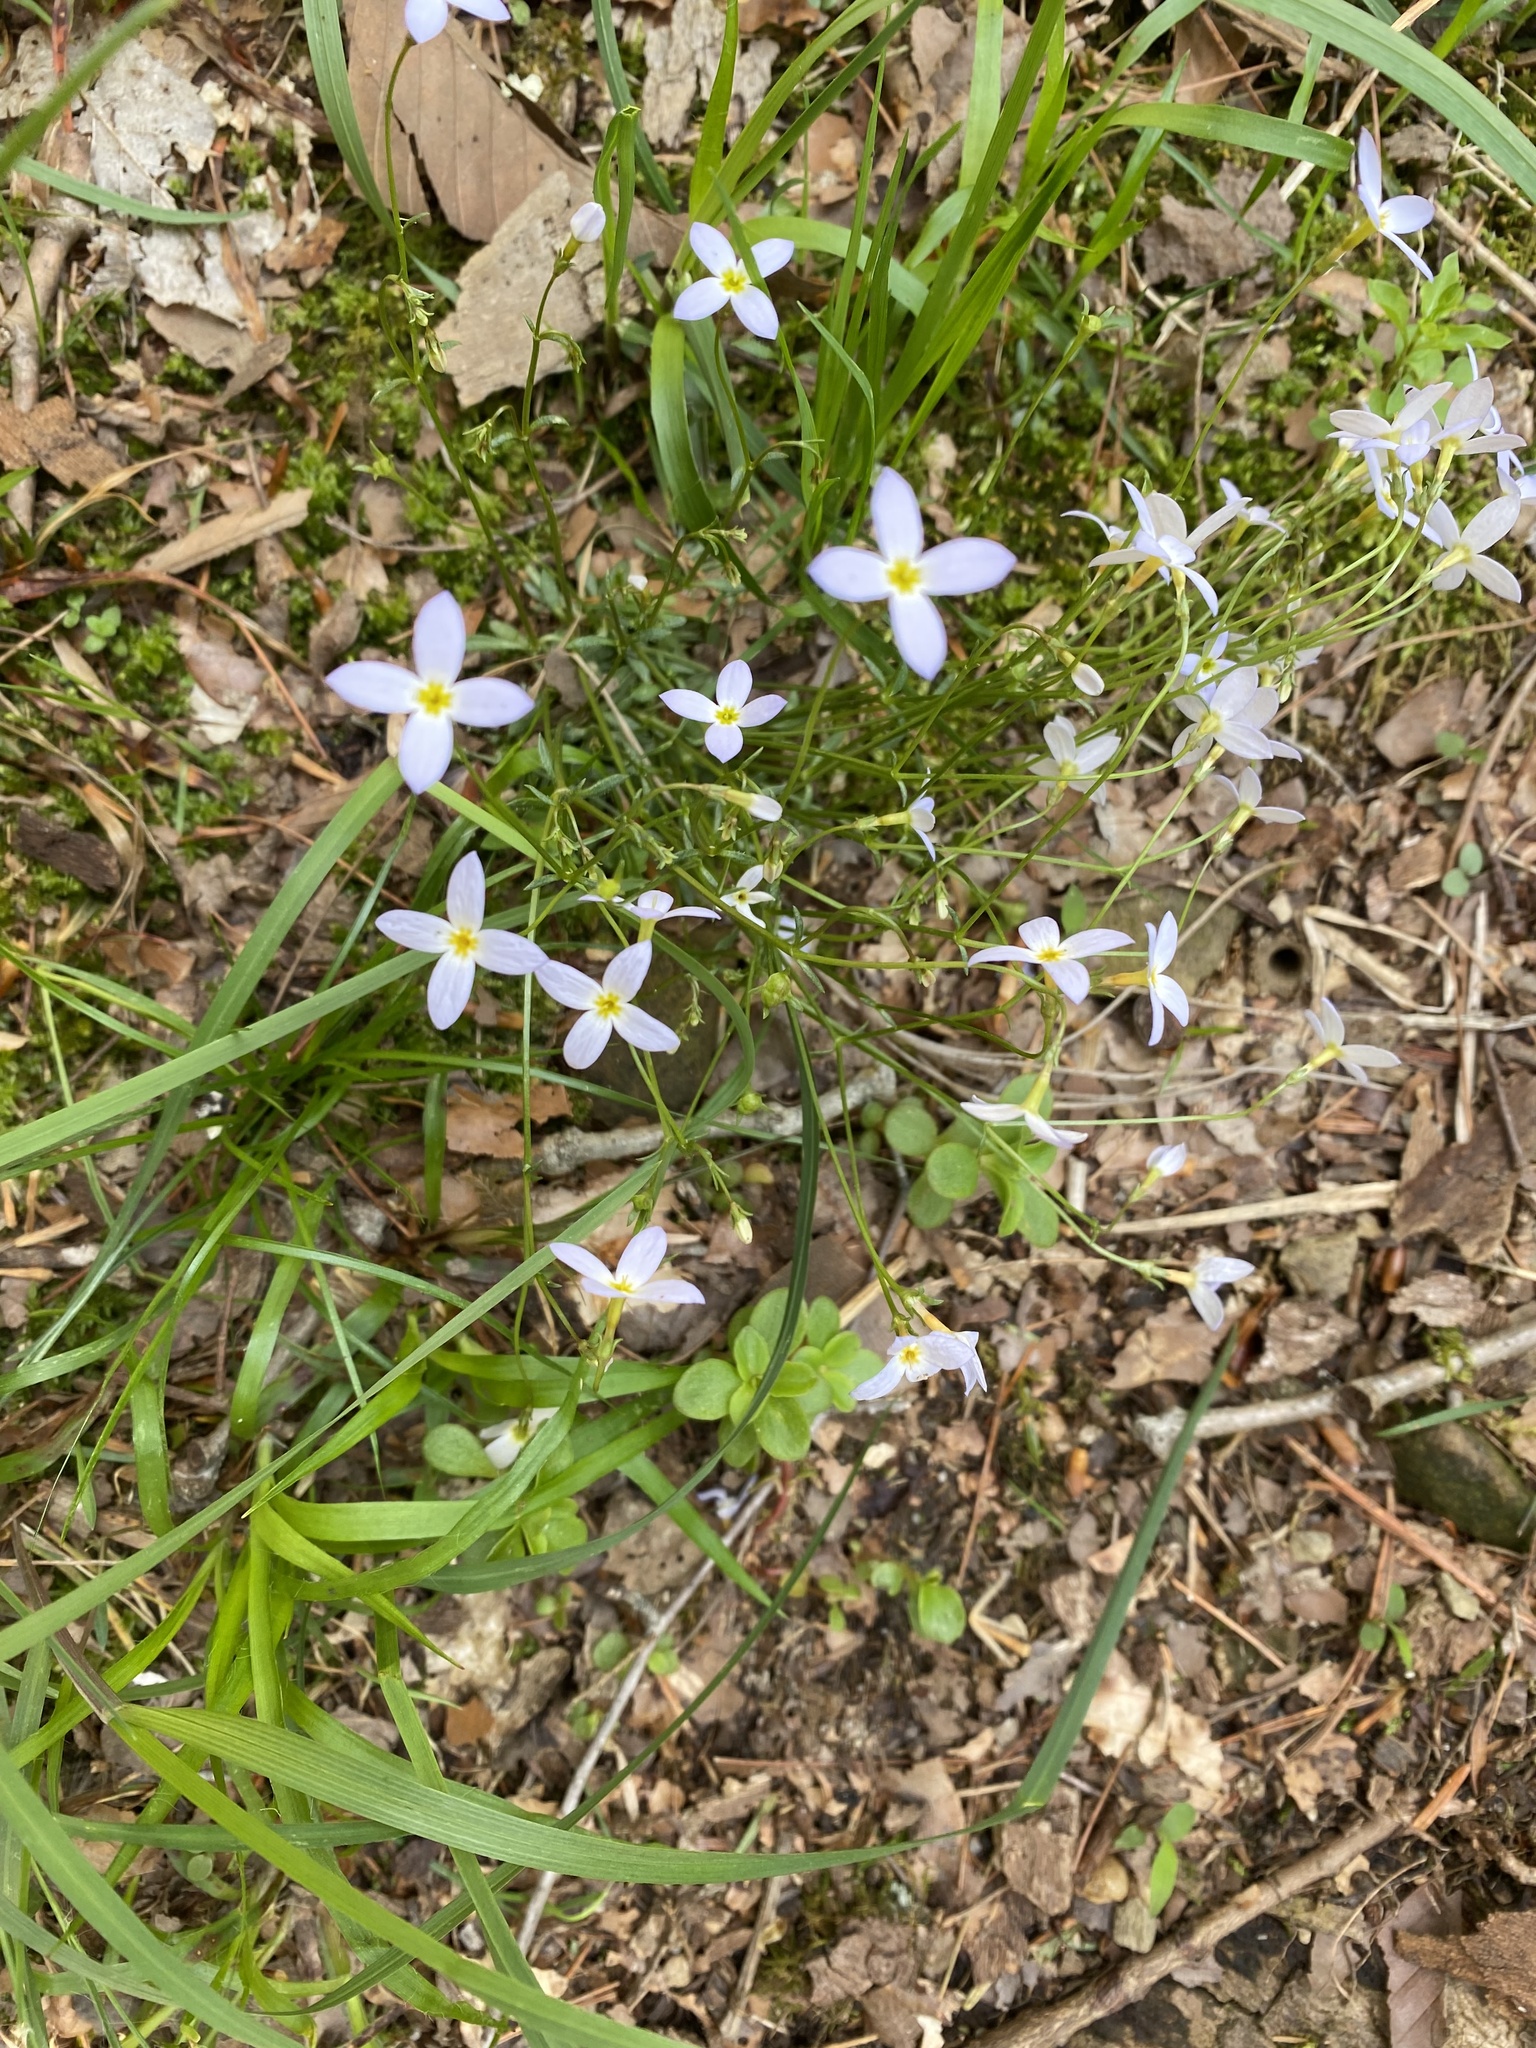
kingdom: Plantae
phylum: Tracheophyta
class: Magnoliopsida
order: Gentianales
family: Rubiaceae
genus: Houstonia
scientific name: Houstonia caerulea
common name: Bluets
